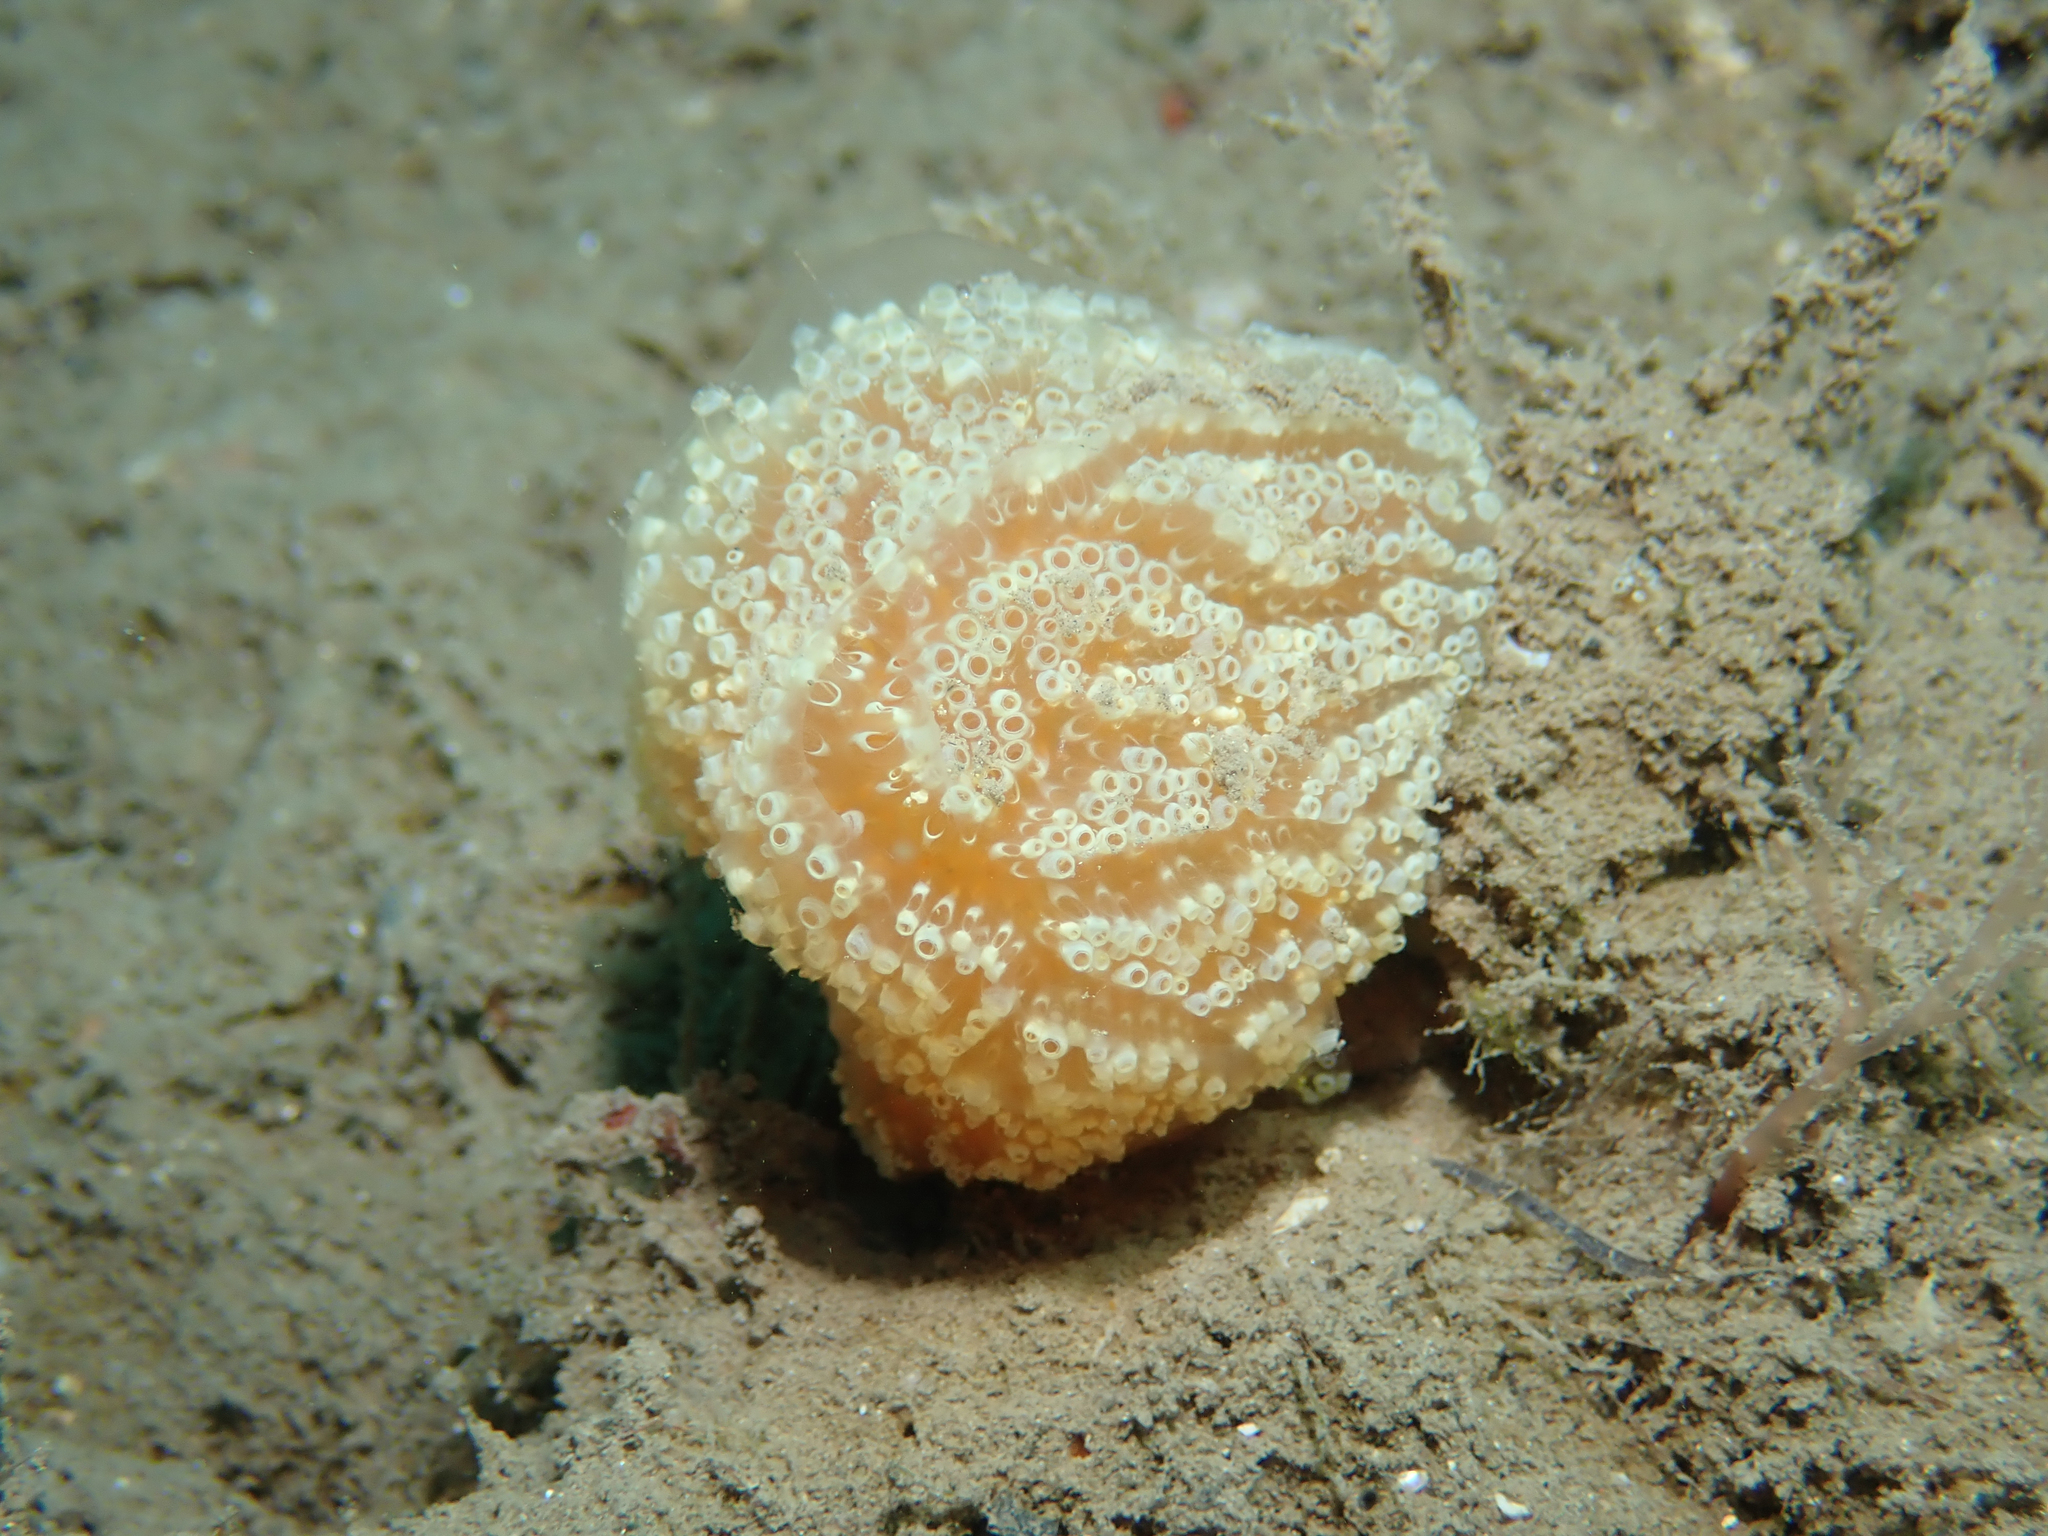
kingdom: Animalia
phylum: Chordata
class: Ascidiacea
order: Aplousobranchia
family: Polyclinidae
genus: Aplidium
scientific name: Aplidium ocellatum
